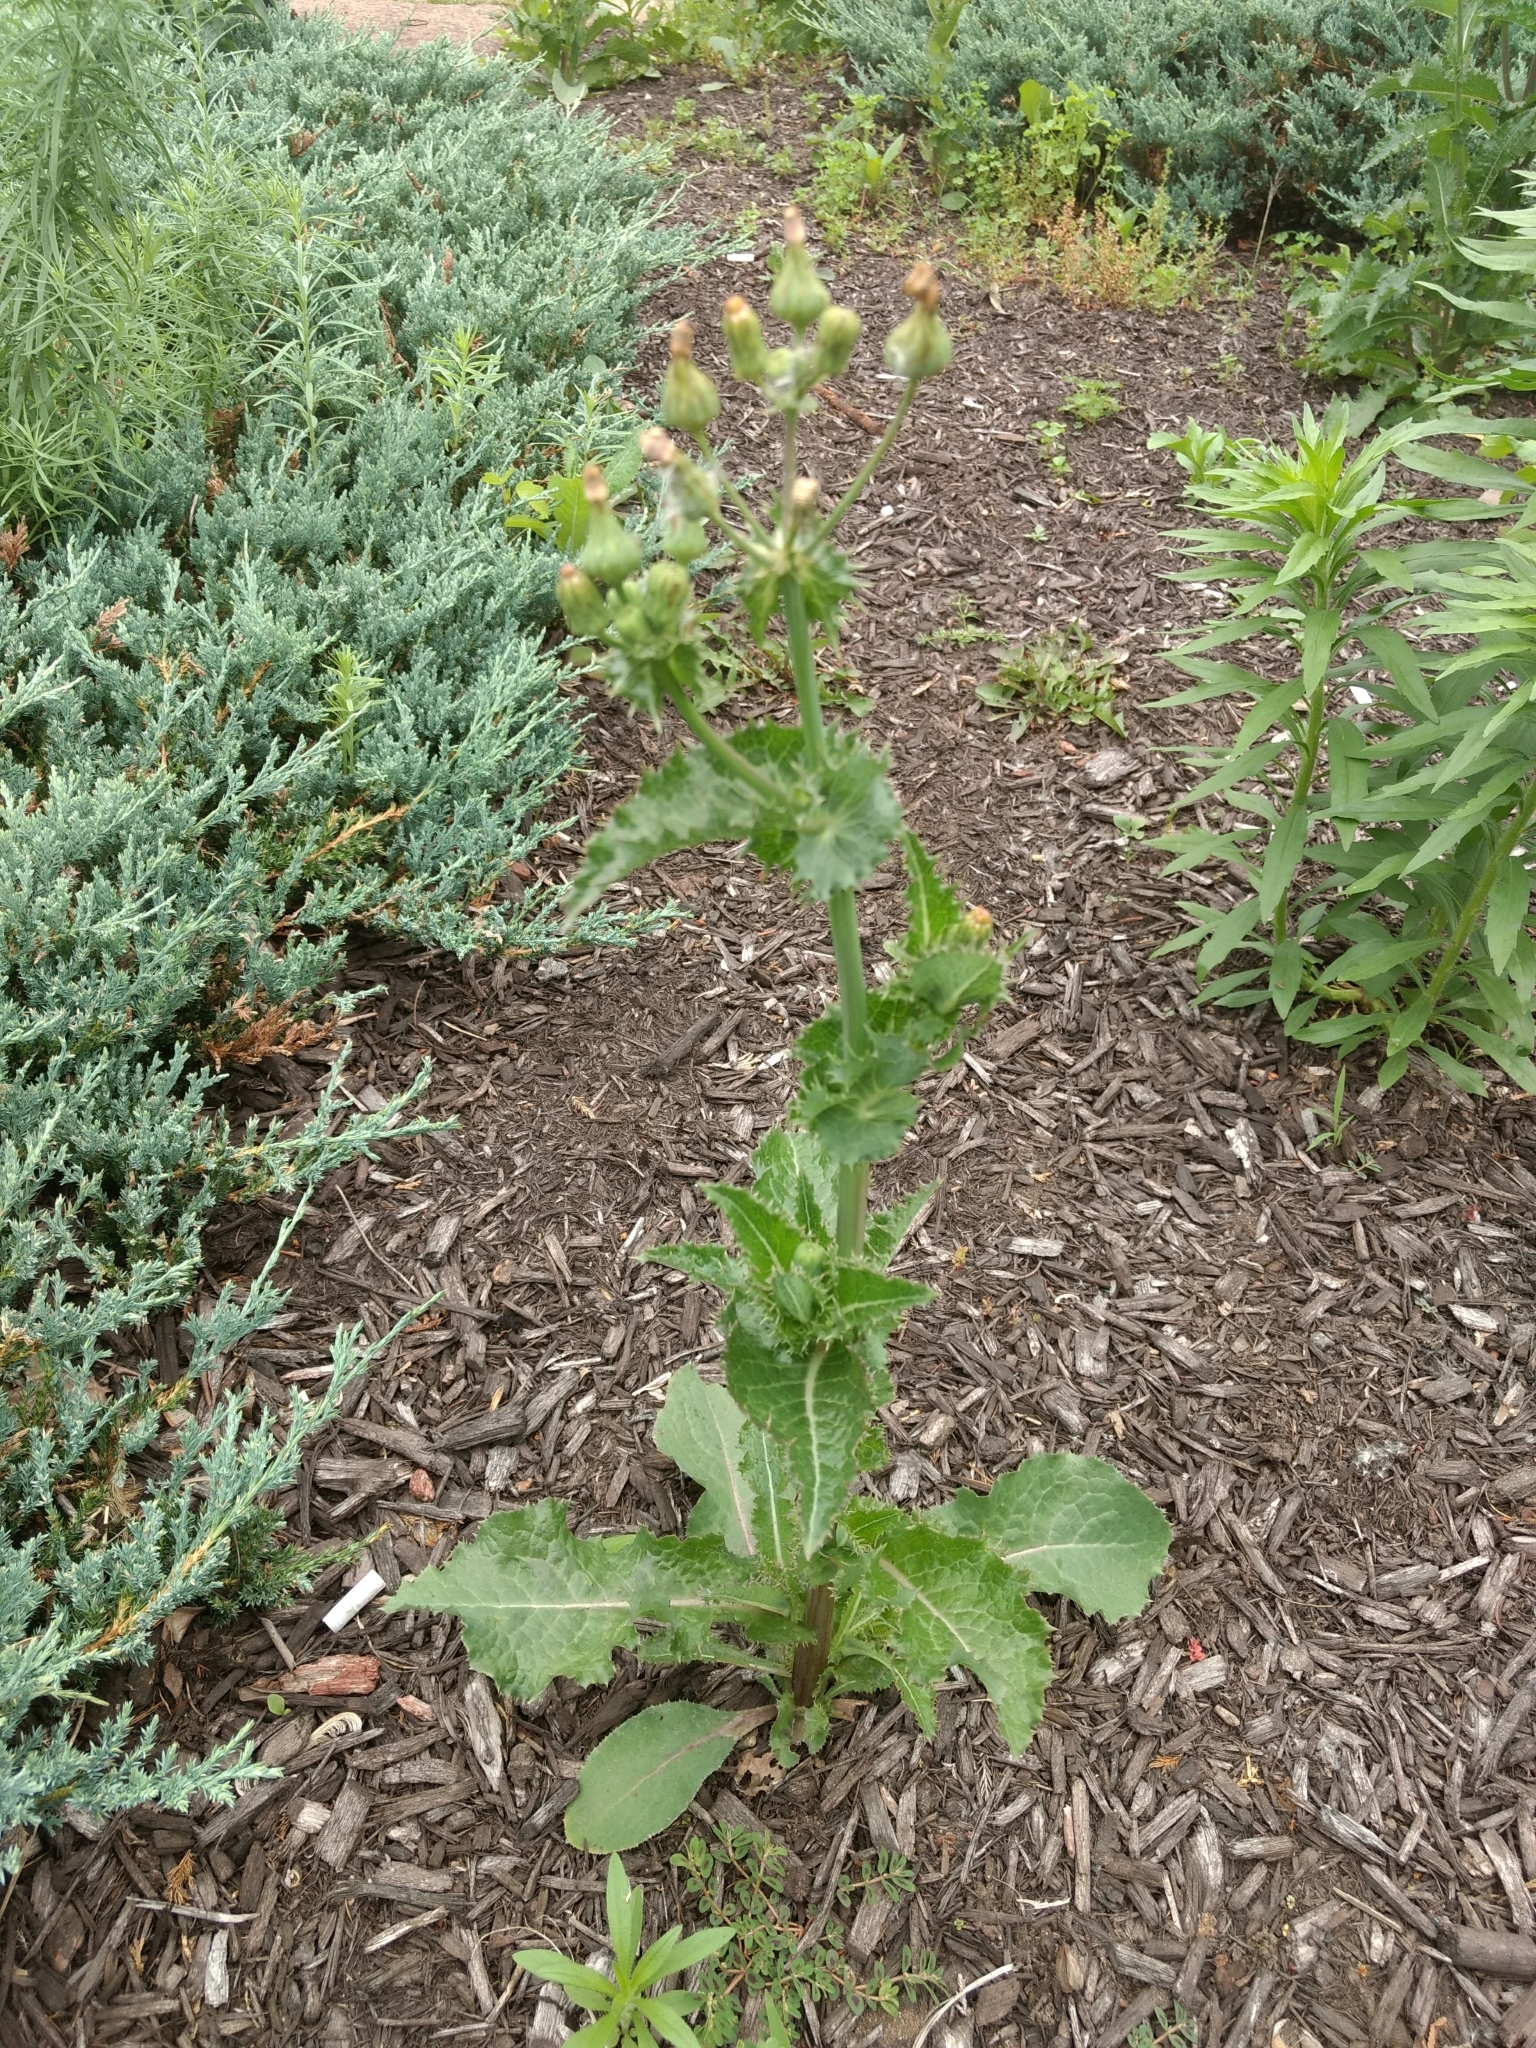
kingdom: Plantae
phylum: Tracheophyta
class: Magnoliopsida
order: Asterales
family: Asteraceae
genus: Sonchus
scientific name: Sonchus asper
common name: Prickly sow-thistle
